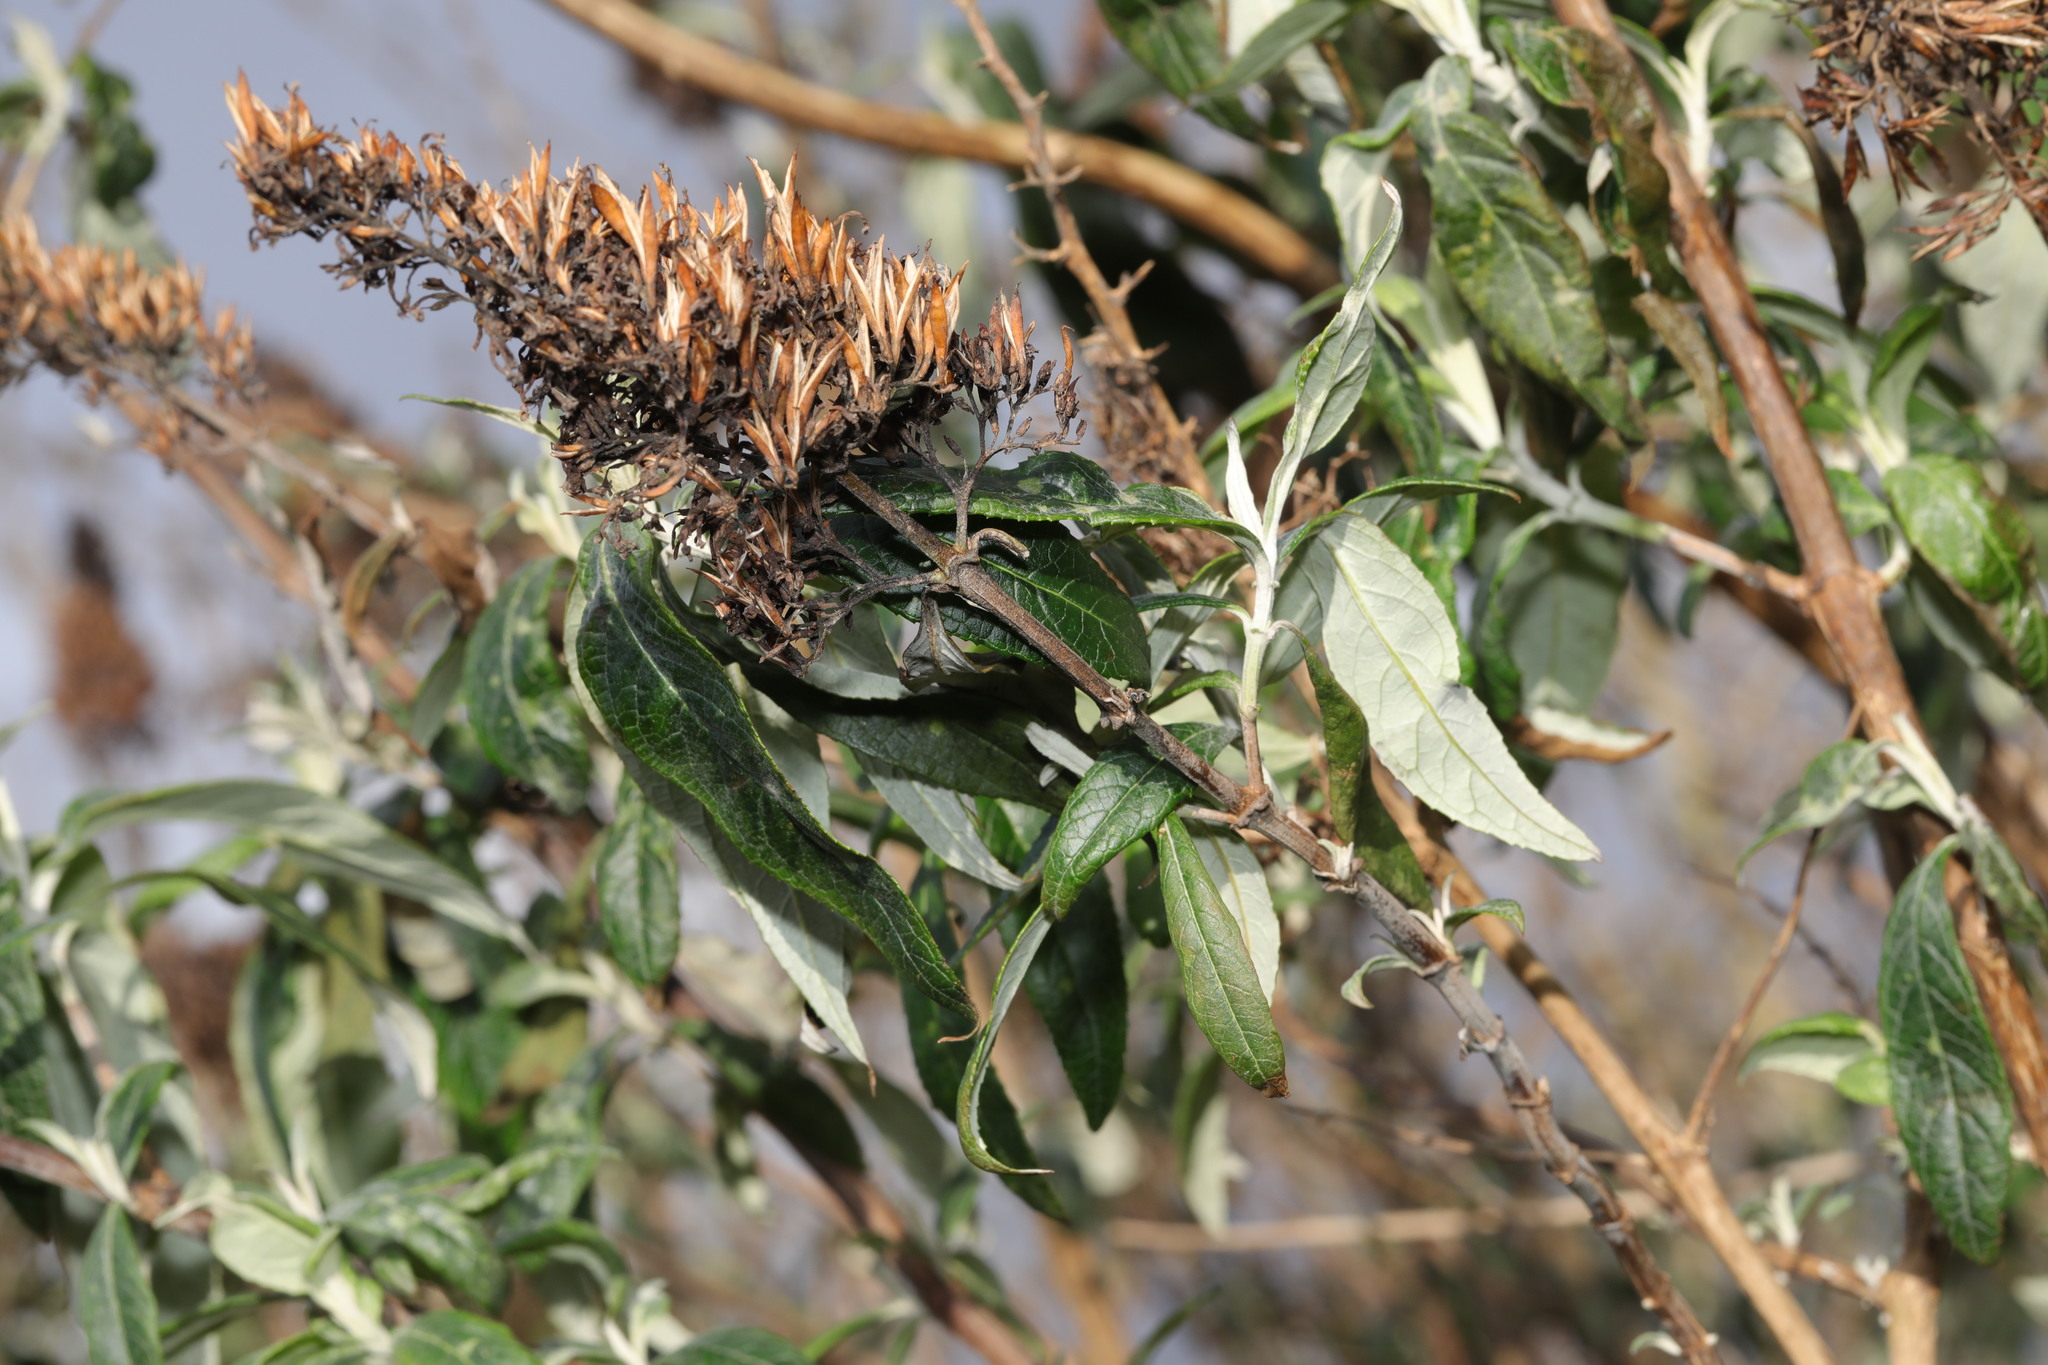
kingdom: Plantae
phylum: Tracheophyta
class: Magnoliopsida
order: Lamiales
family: Scrophulariaceae
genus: Buddleja
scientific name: Buddleja davidii
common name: Butterfly-bush
